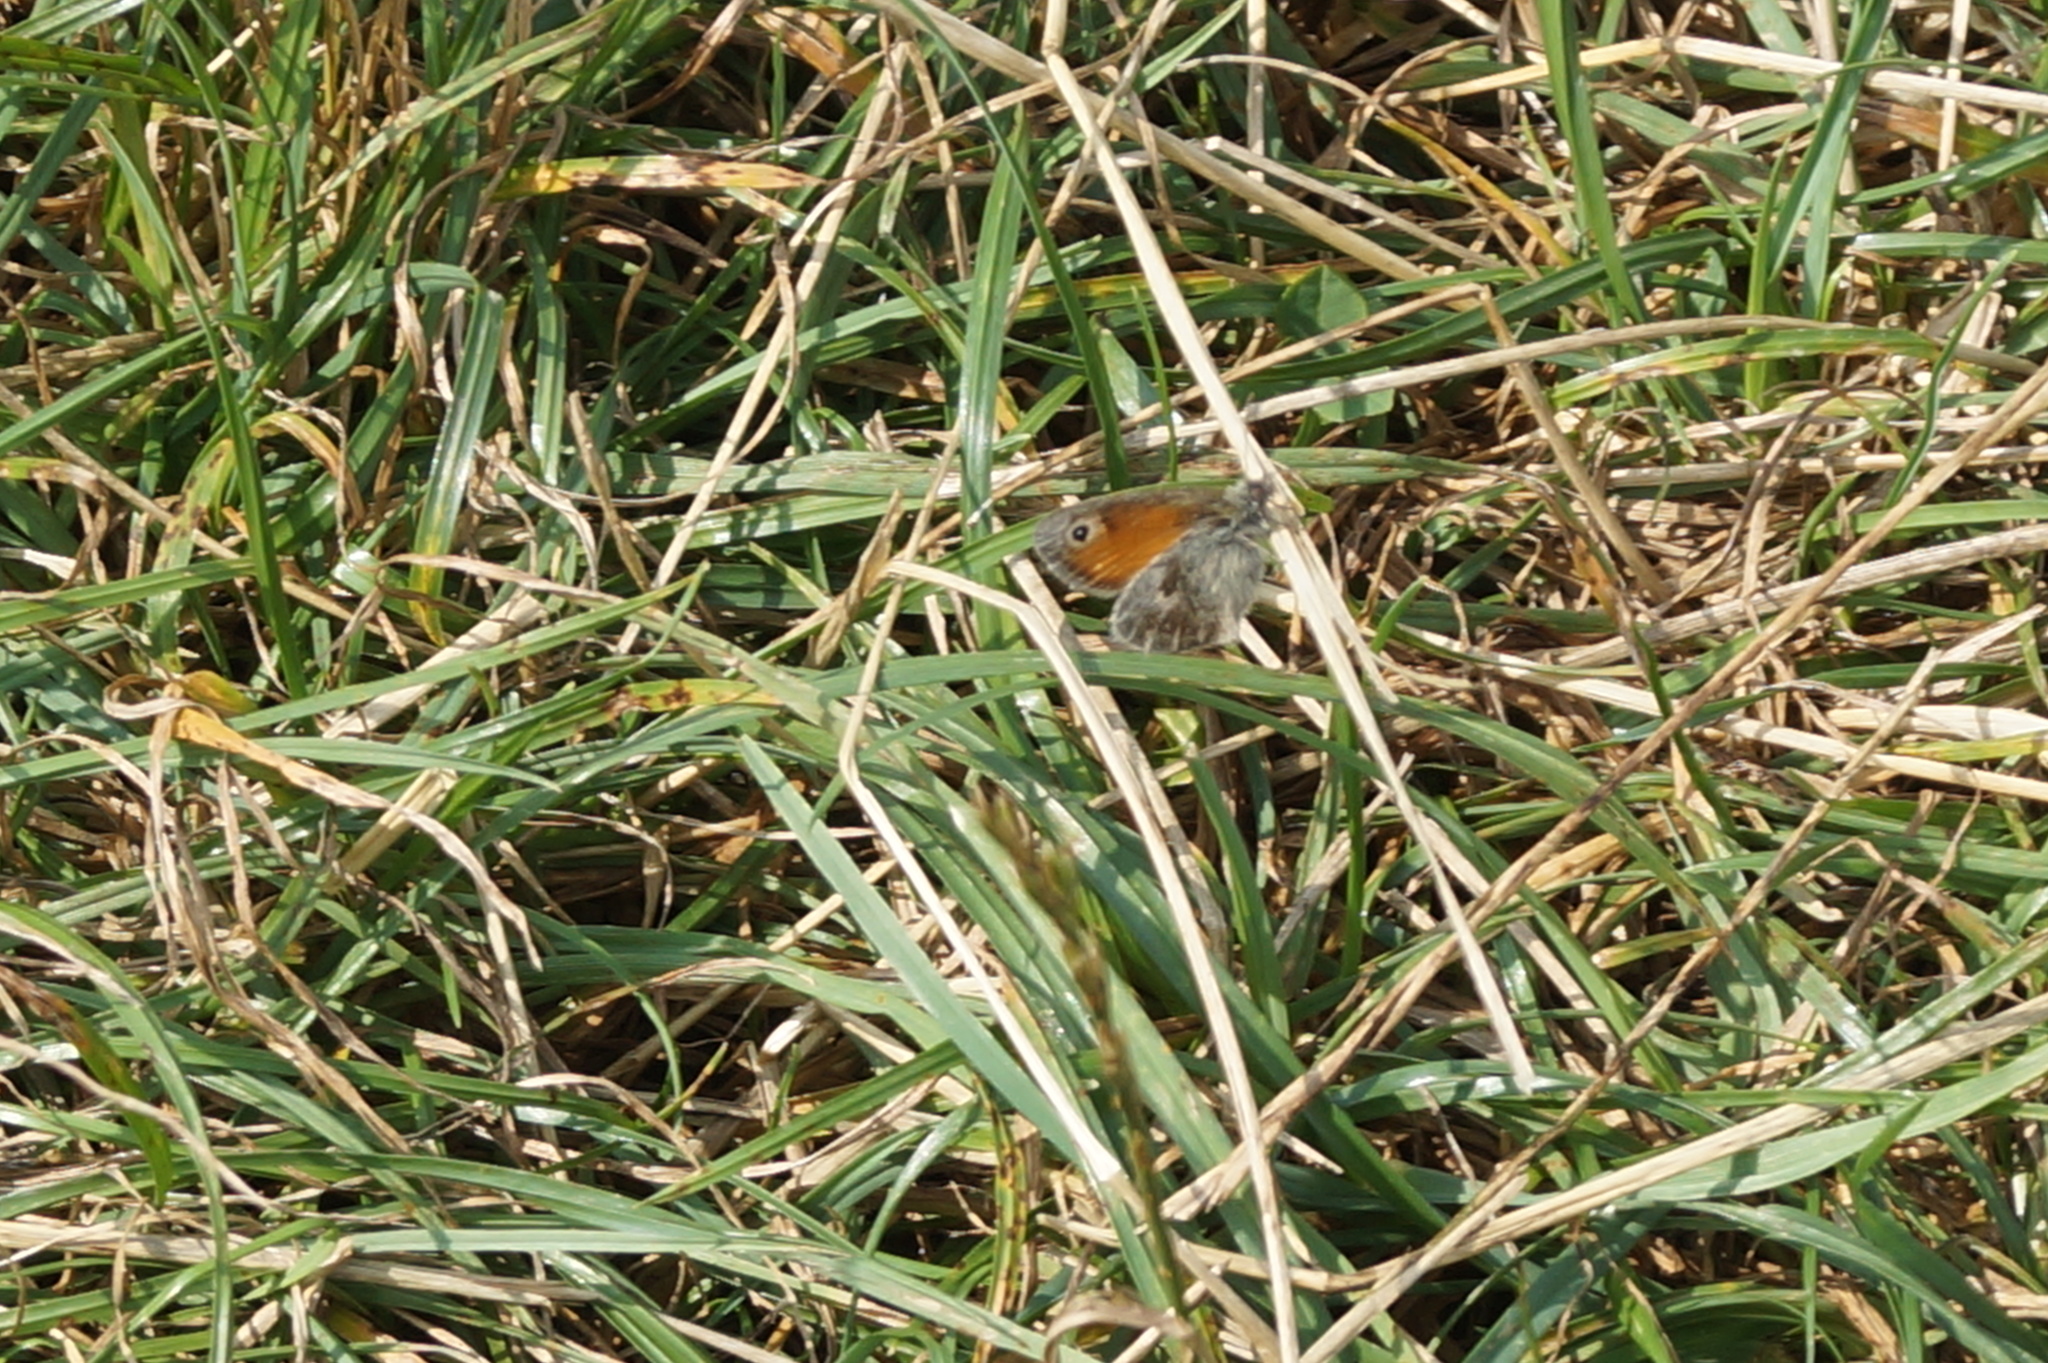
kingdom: Animalia
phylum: Arthropoda
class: Insecta
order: Lepidoptera
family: Nymphalidae
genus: Coenonympha
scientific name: Coenonympha pamphilus
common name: Small heath
